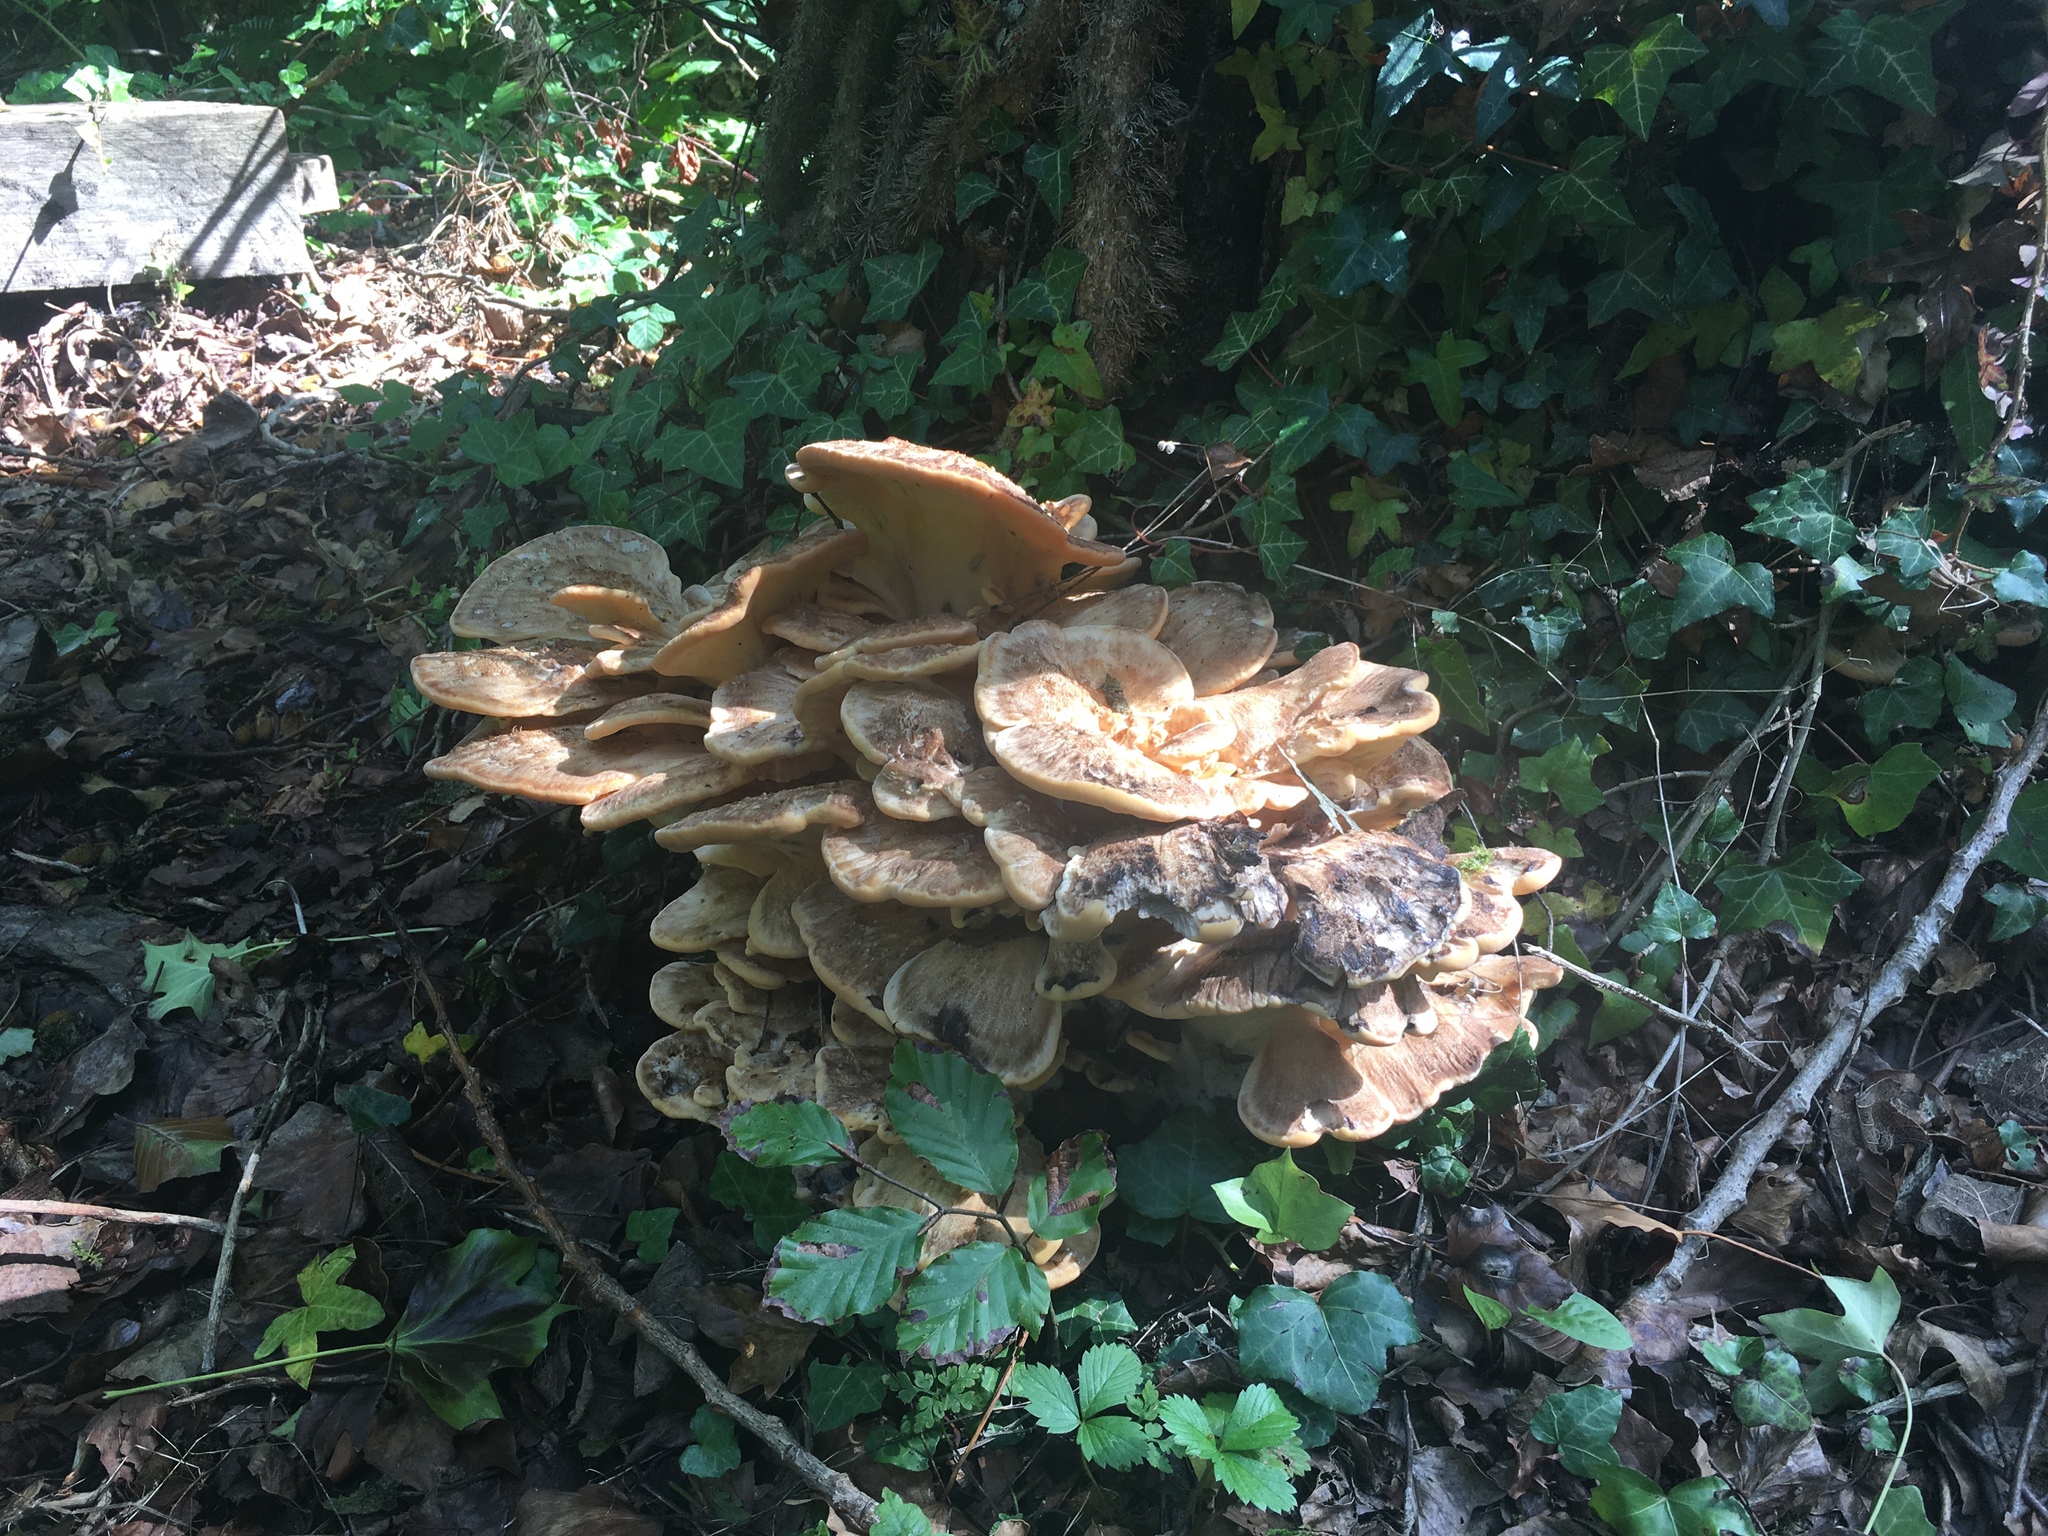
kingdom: Fungi
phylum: Basidiomycota
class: Agaricomycetes
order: Polyporales
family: Meripilaceae
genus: Meripilus
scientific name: Meripilus giganteus
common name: Giant polypore
